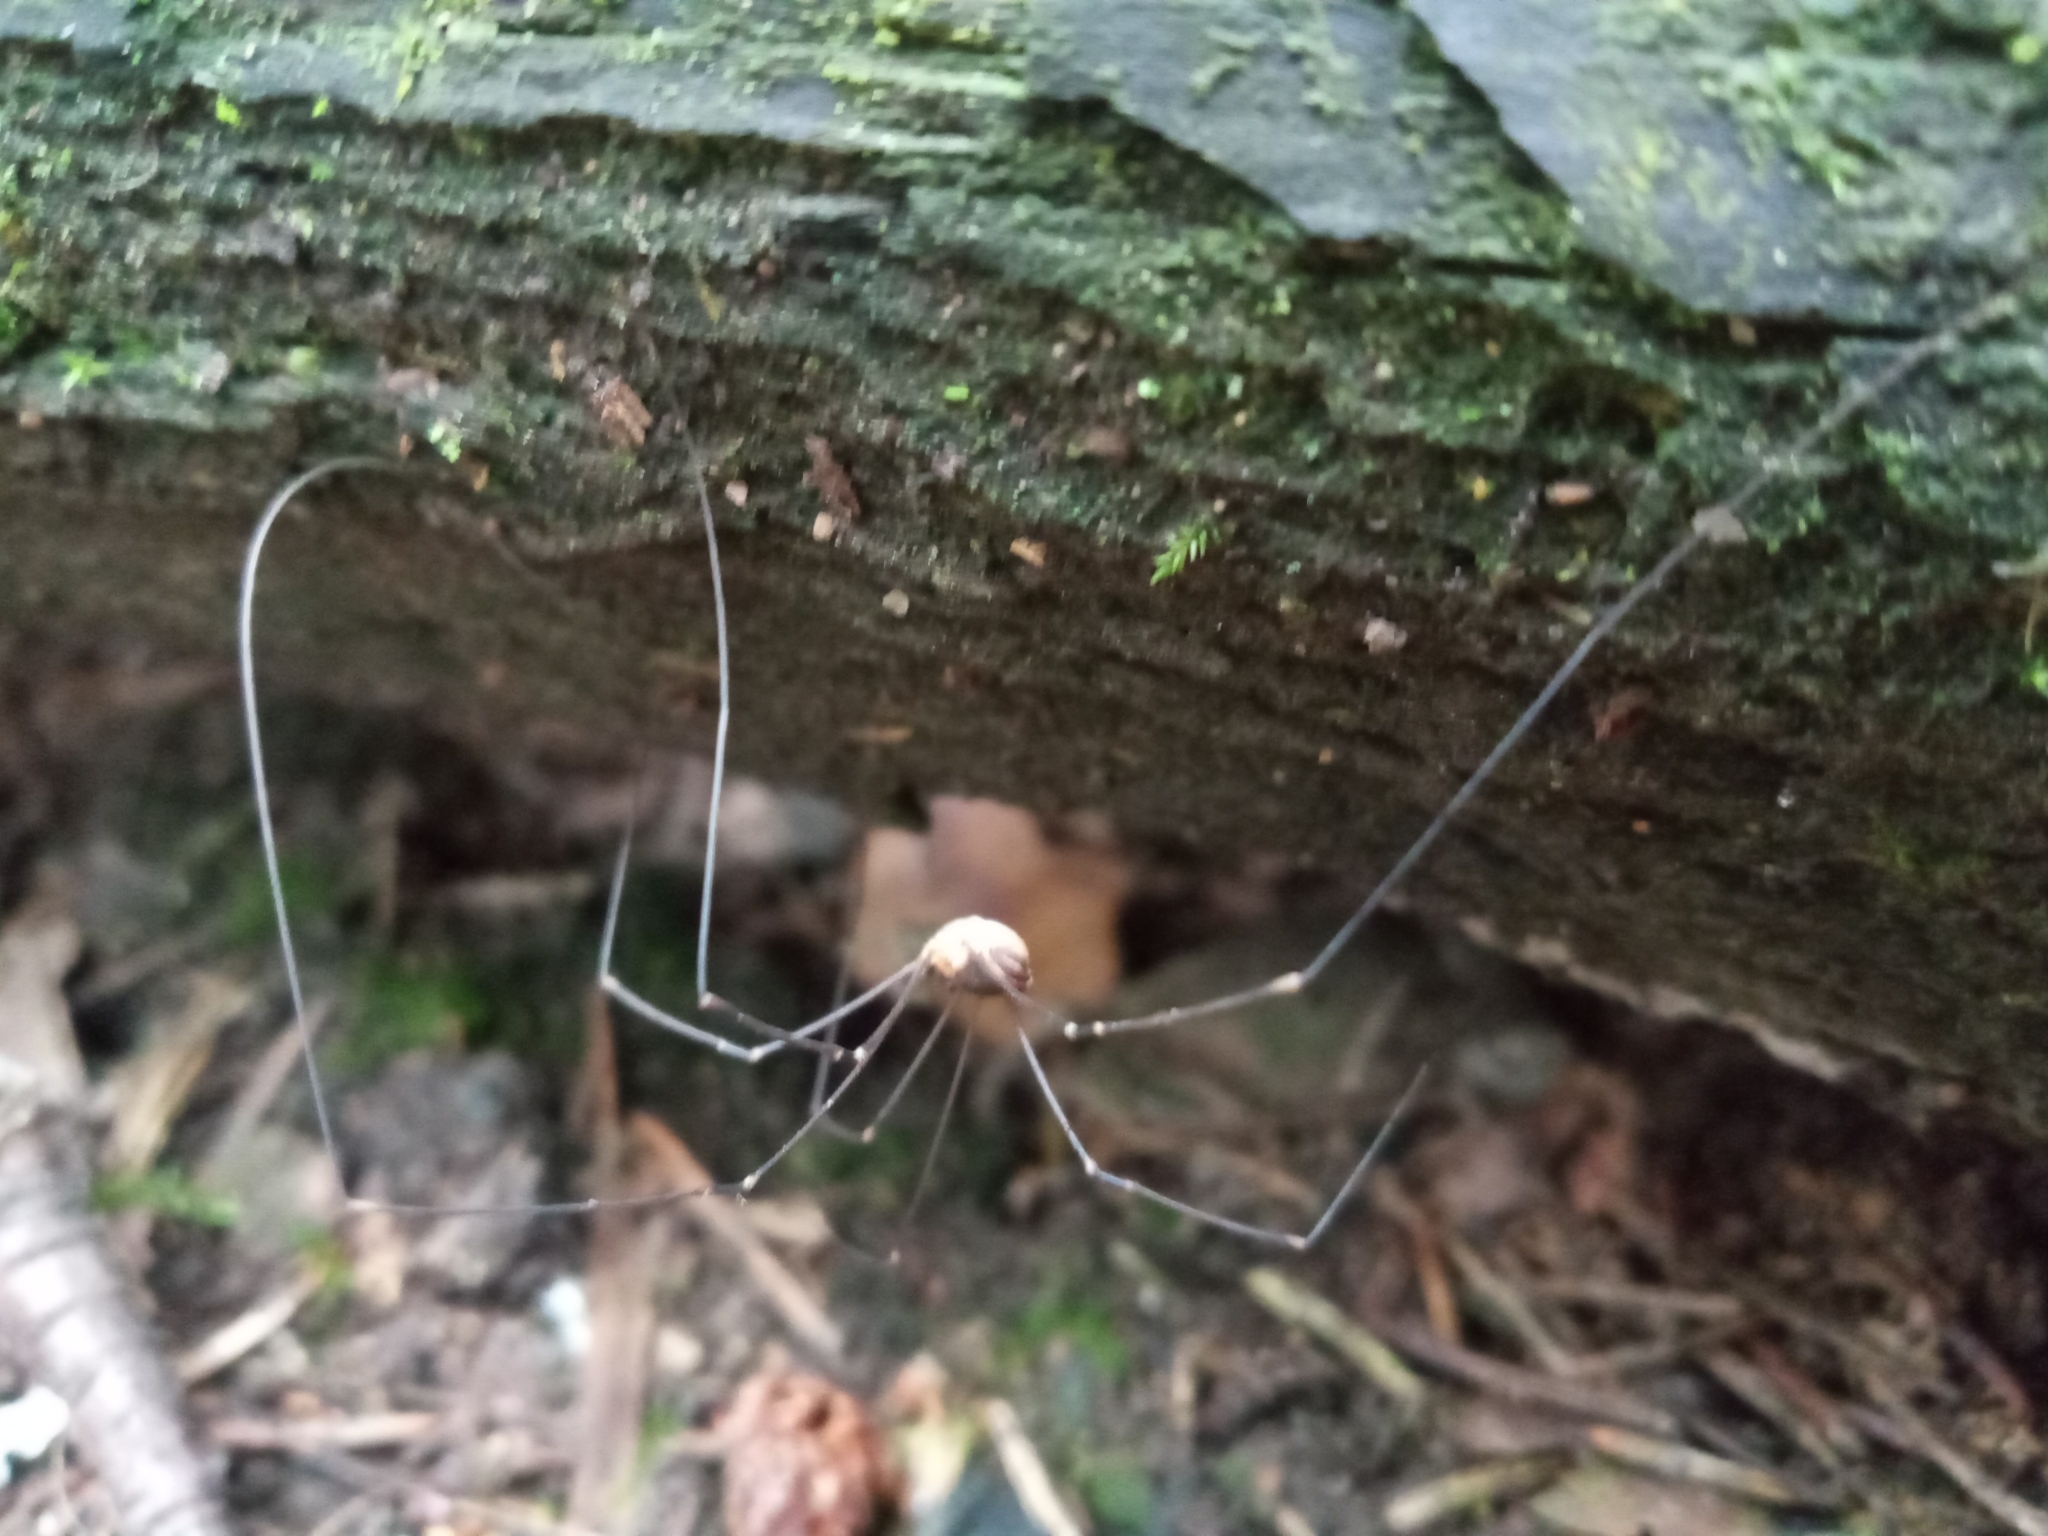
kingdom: Animalia
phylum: Arthropoda
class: Arachnida
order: Opiliones
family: Sclerosomatidae
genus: Leiobunum
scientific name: Leiobunum gracile
